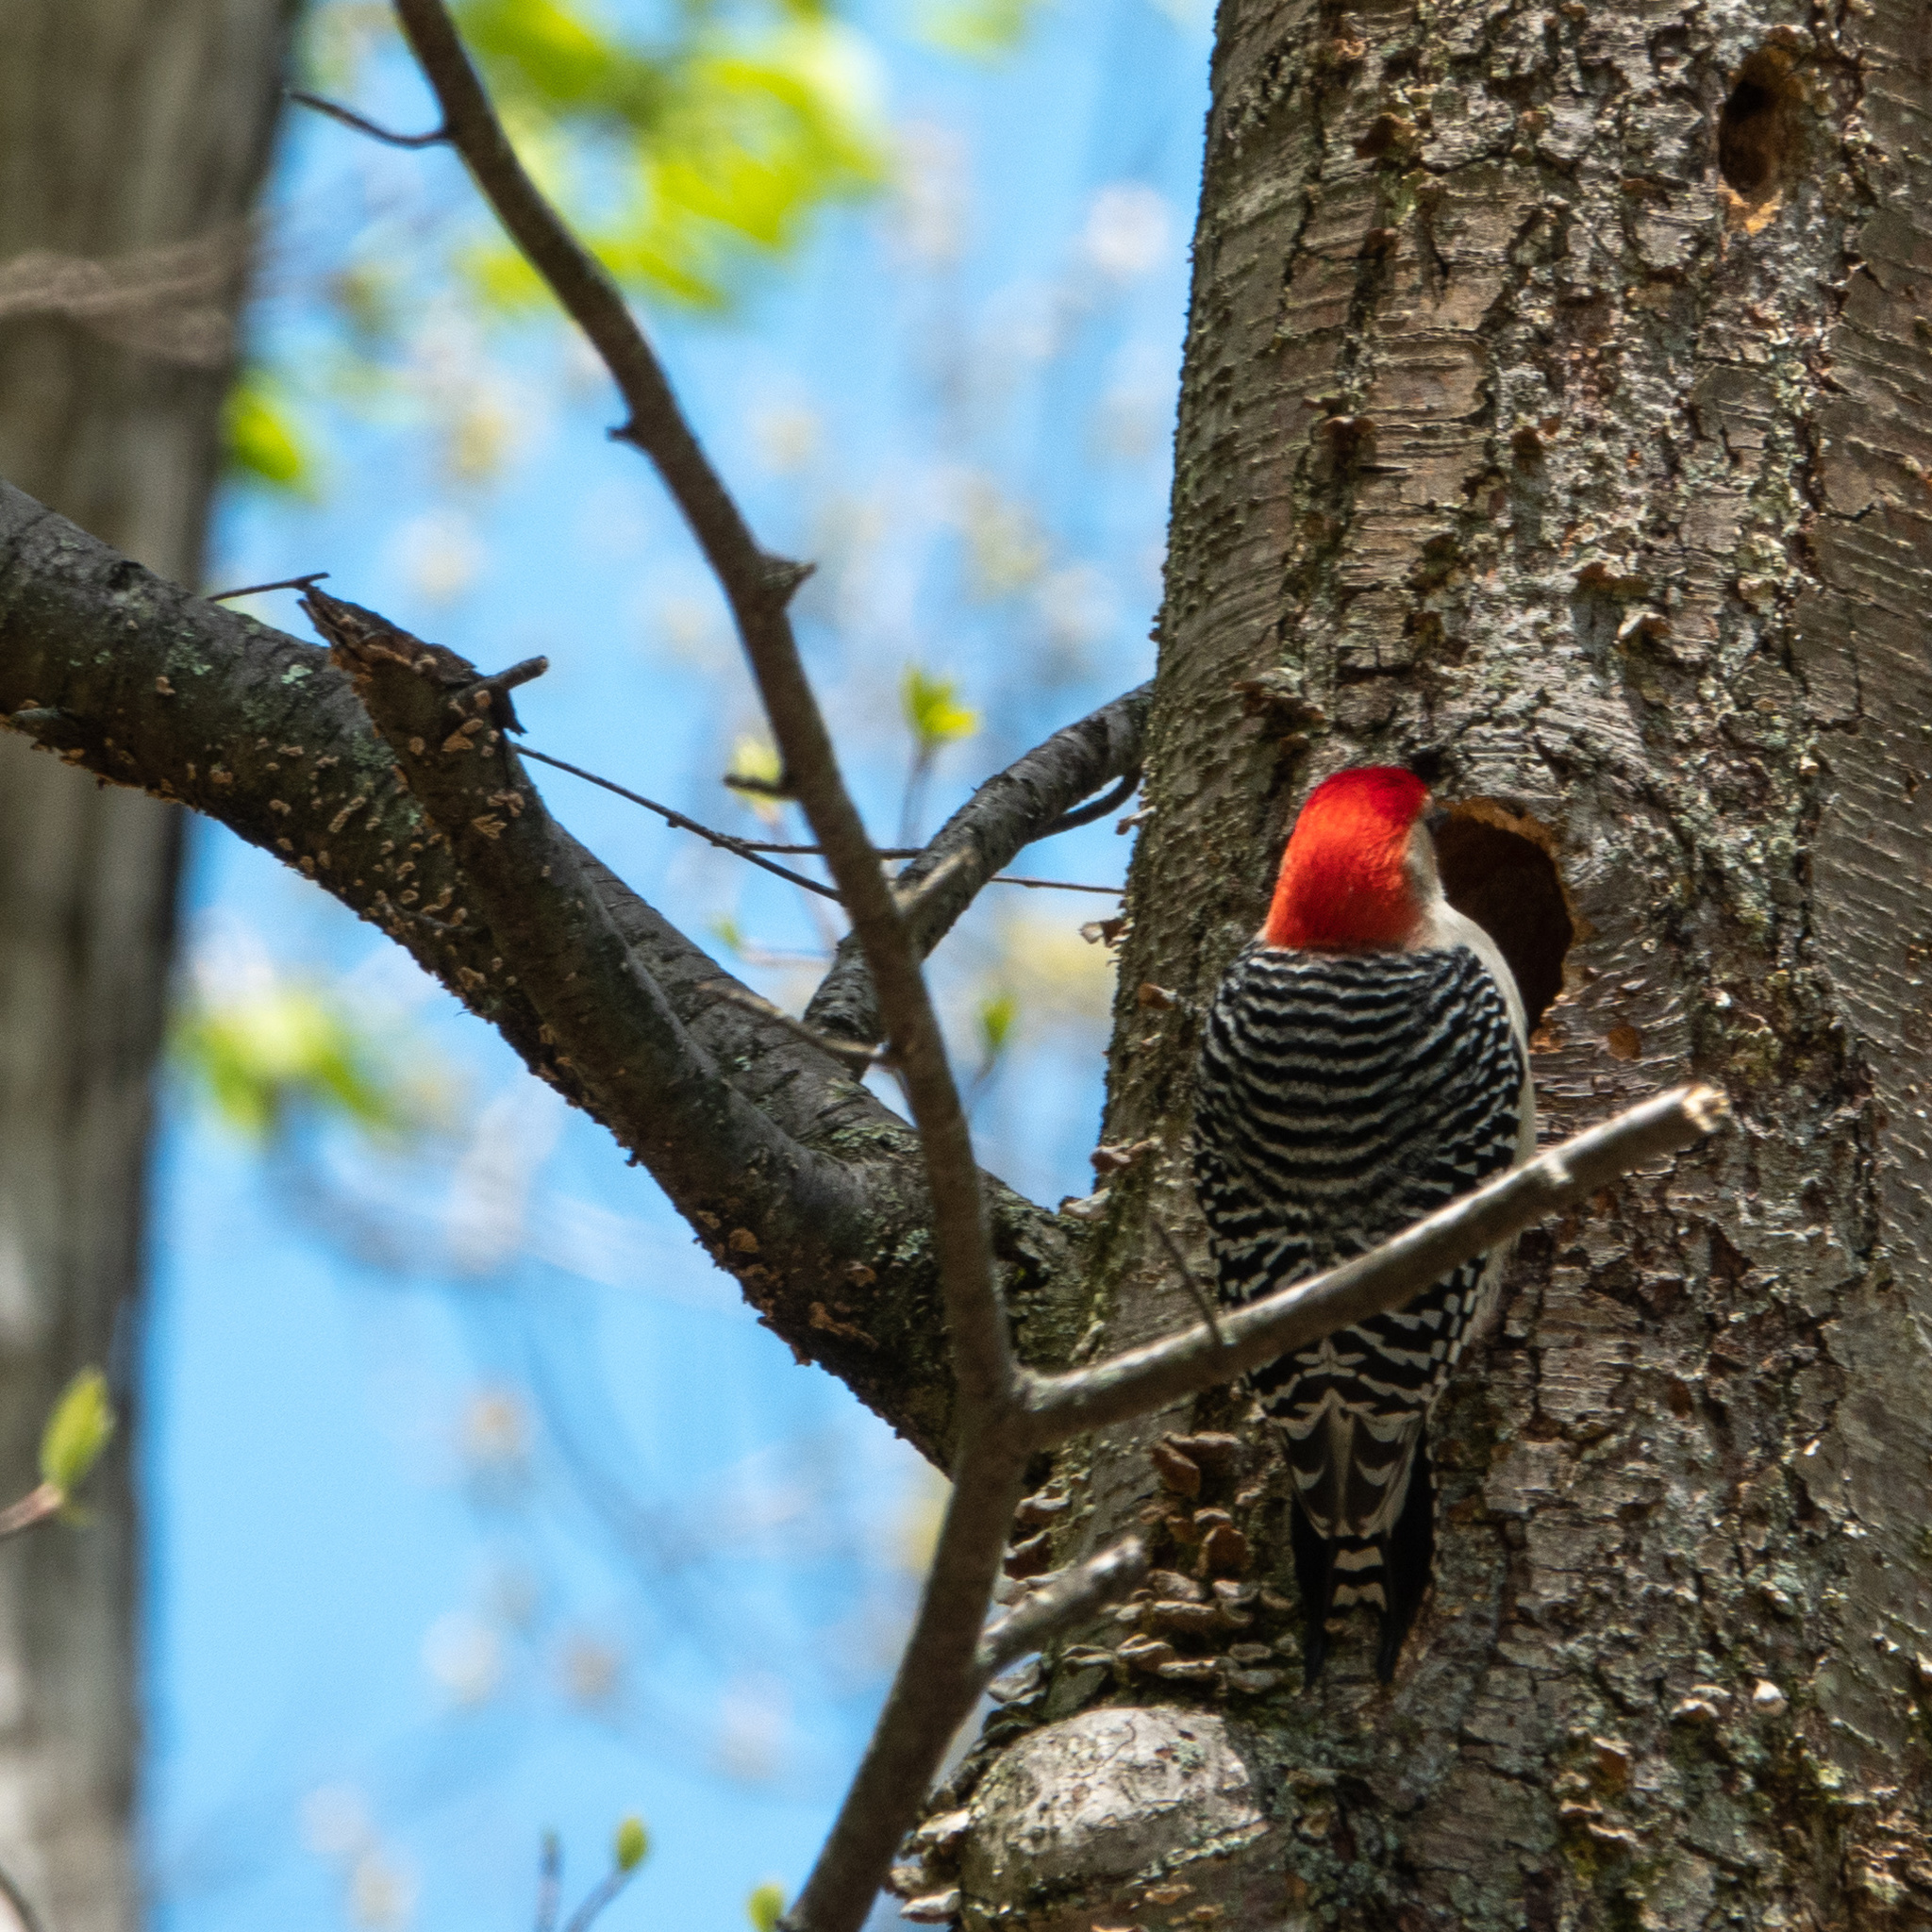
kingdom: Animalia
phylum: Chordata
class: Aves
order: Piciformes
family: Picidae
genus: Melanerpes
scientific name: Melanerpes carolinus
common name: Red-bellied woodpecker
